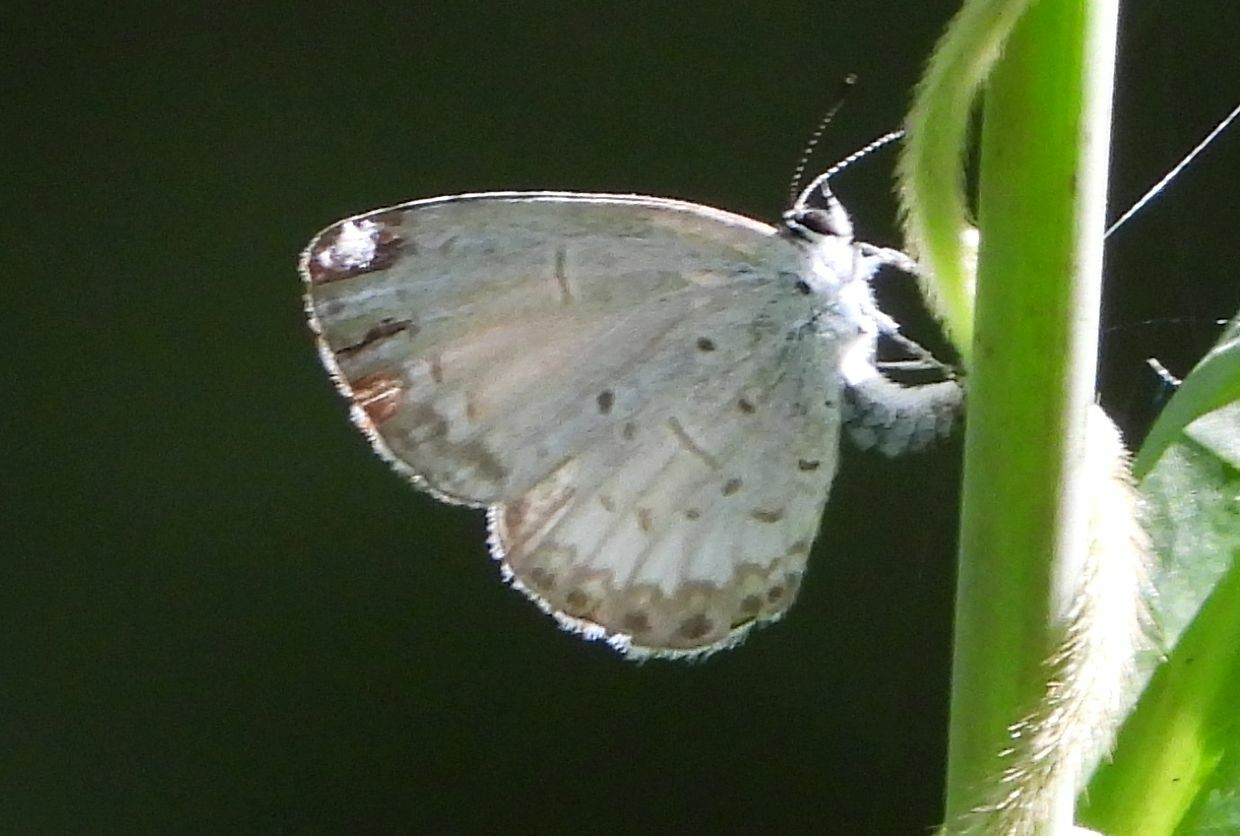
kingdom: Animalia
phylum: Arthropoda
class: Insecta
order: Lepidoptera
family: Lycaenidae
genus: Celastrina
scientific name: Celastrina lucia
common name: Lucia azure
